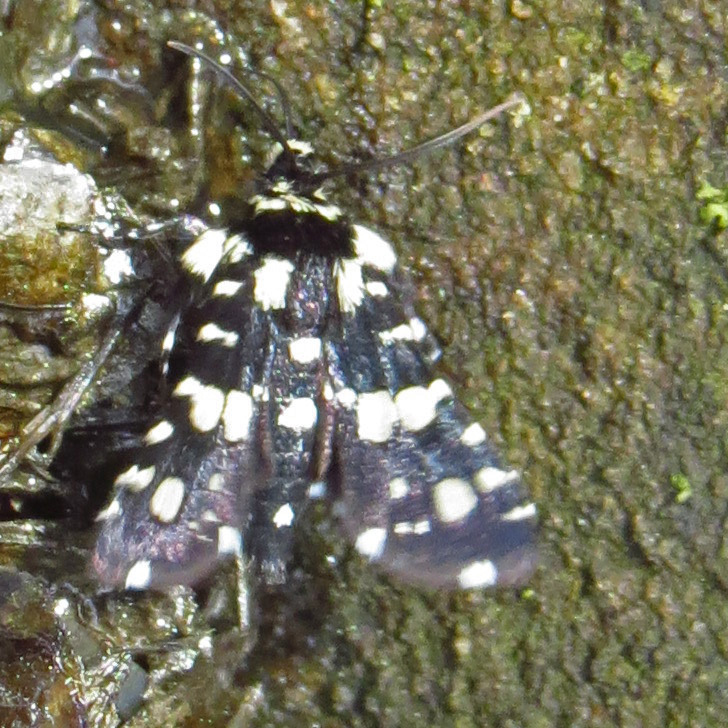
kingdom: Animalia
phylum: Arthropoda
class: Insecta
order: Lepidoptera
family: Thyrididae
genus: Pseudothyris
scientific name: Pseudothyris sepulchralis
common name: Mournful thyris moth
